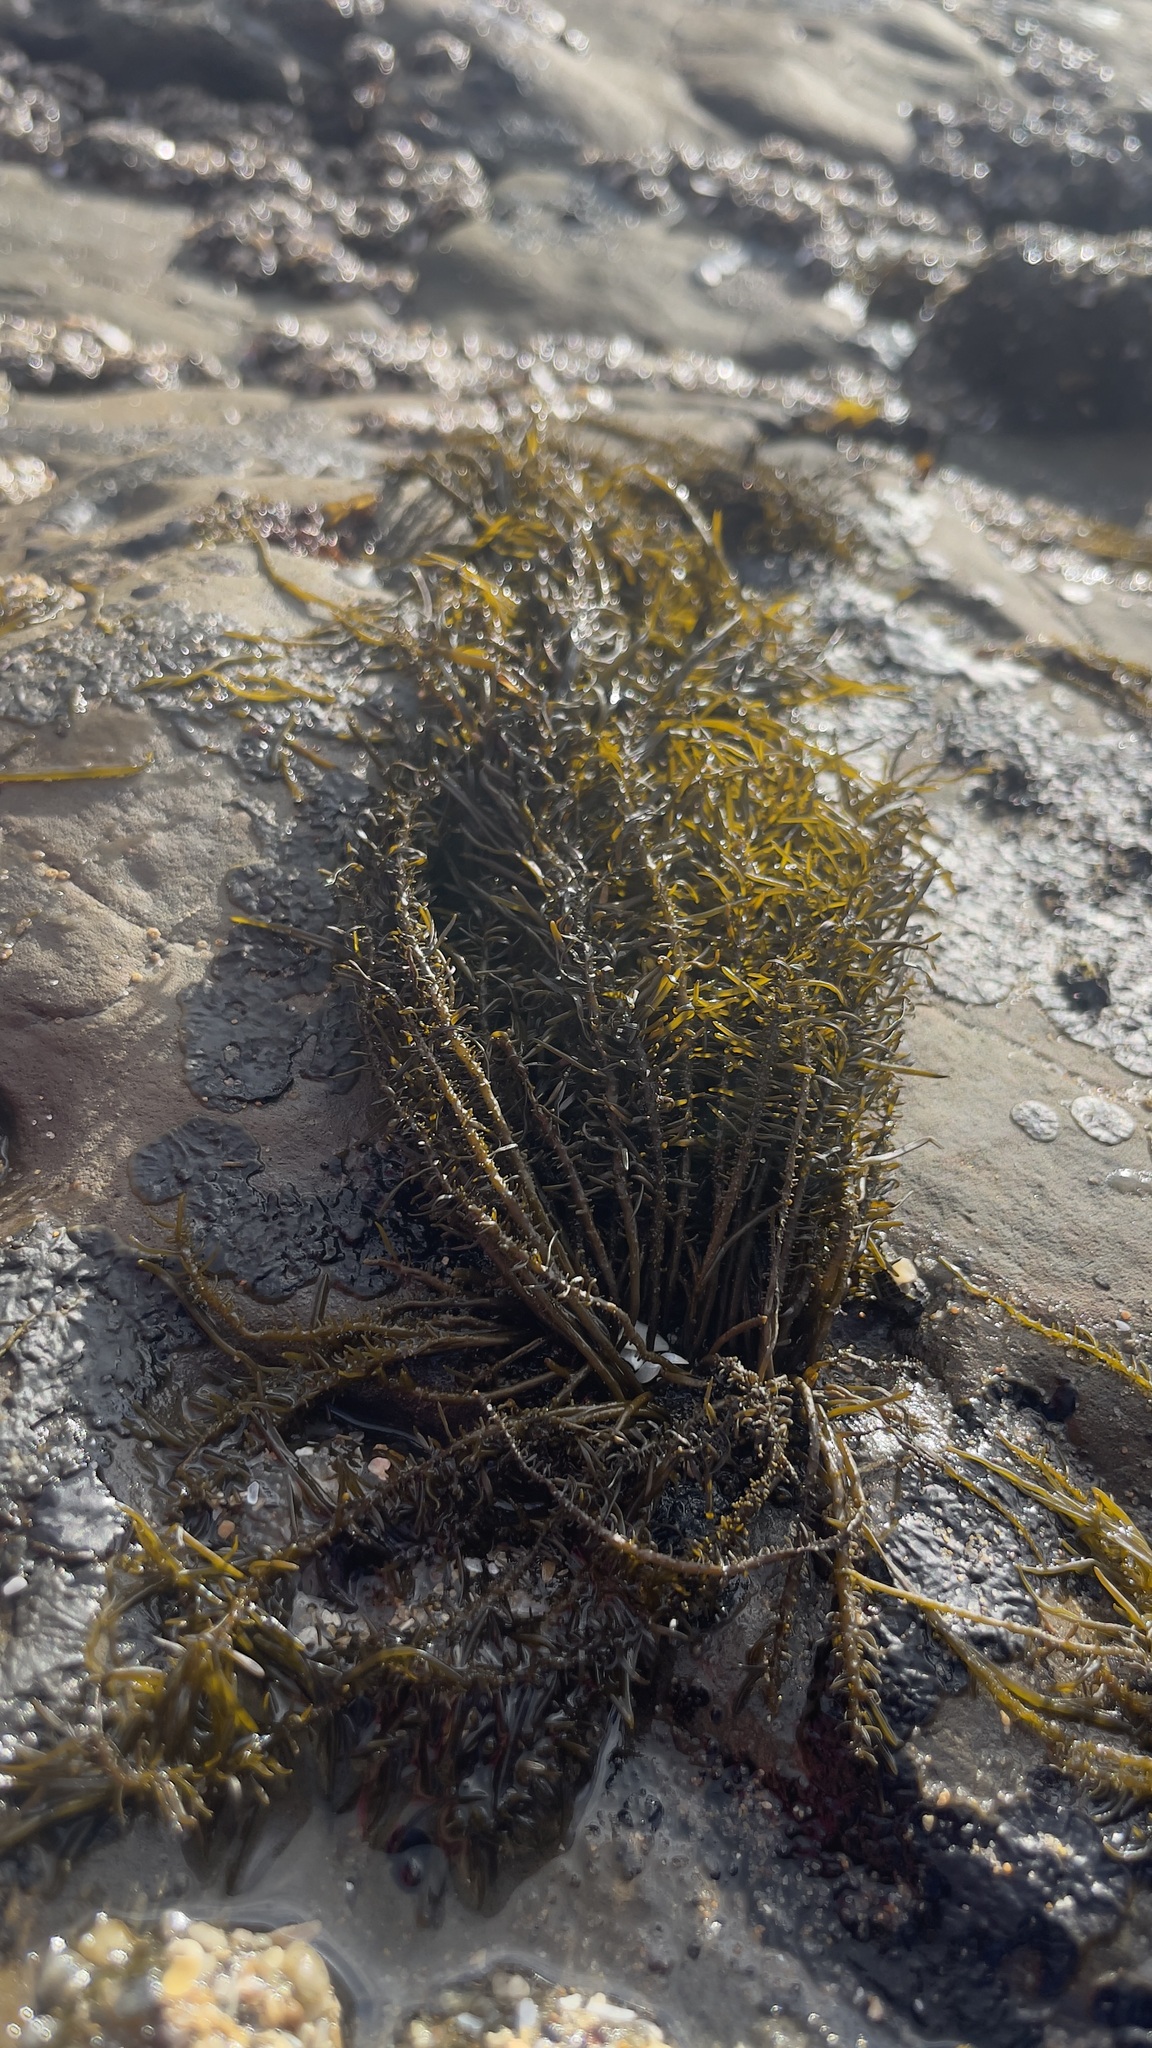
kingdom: Chromista
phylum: Ochrophyta
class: Phaeophyceae
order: Scytosiphonales
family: Scytosiphonaceae
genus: Analipus
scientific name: Analipus japonicus
